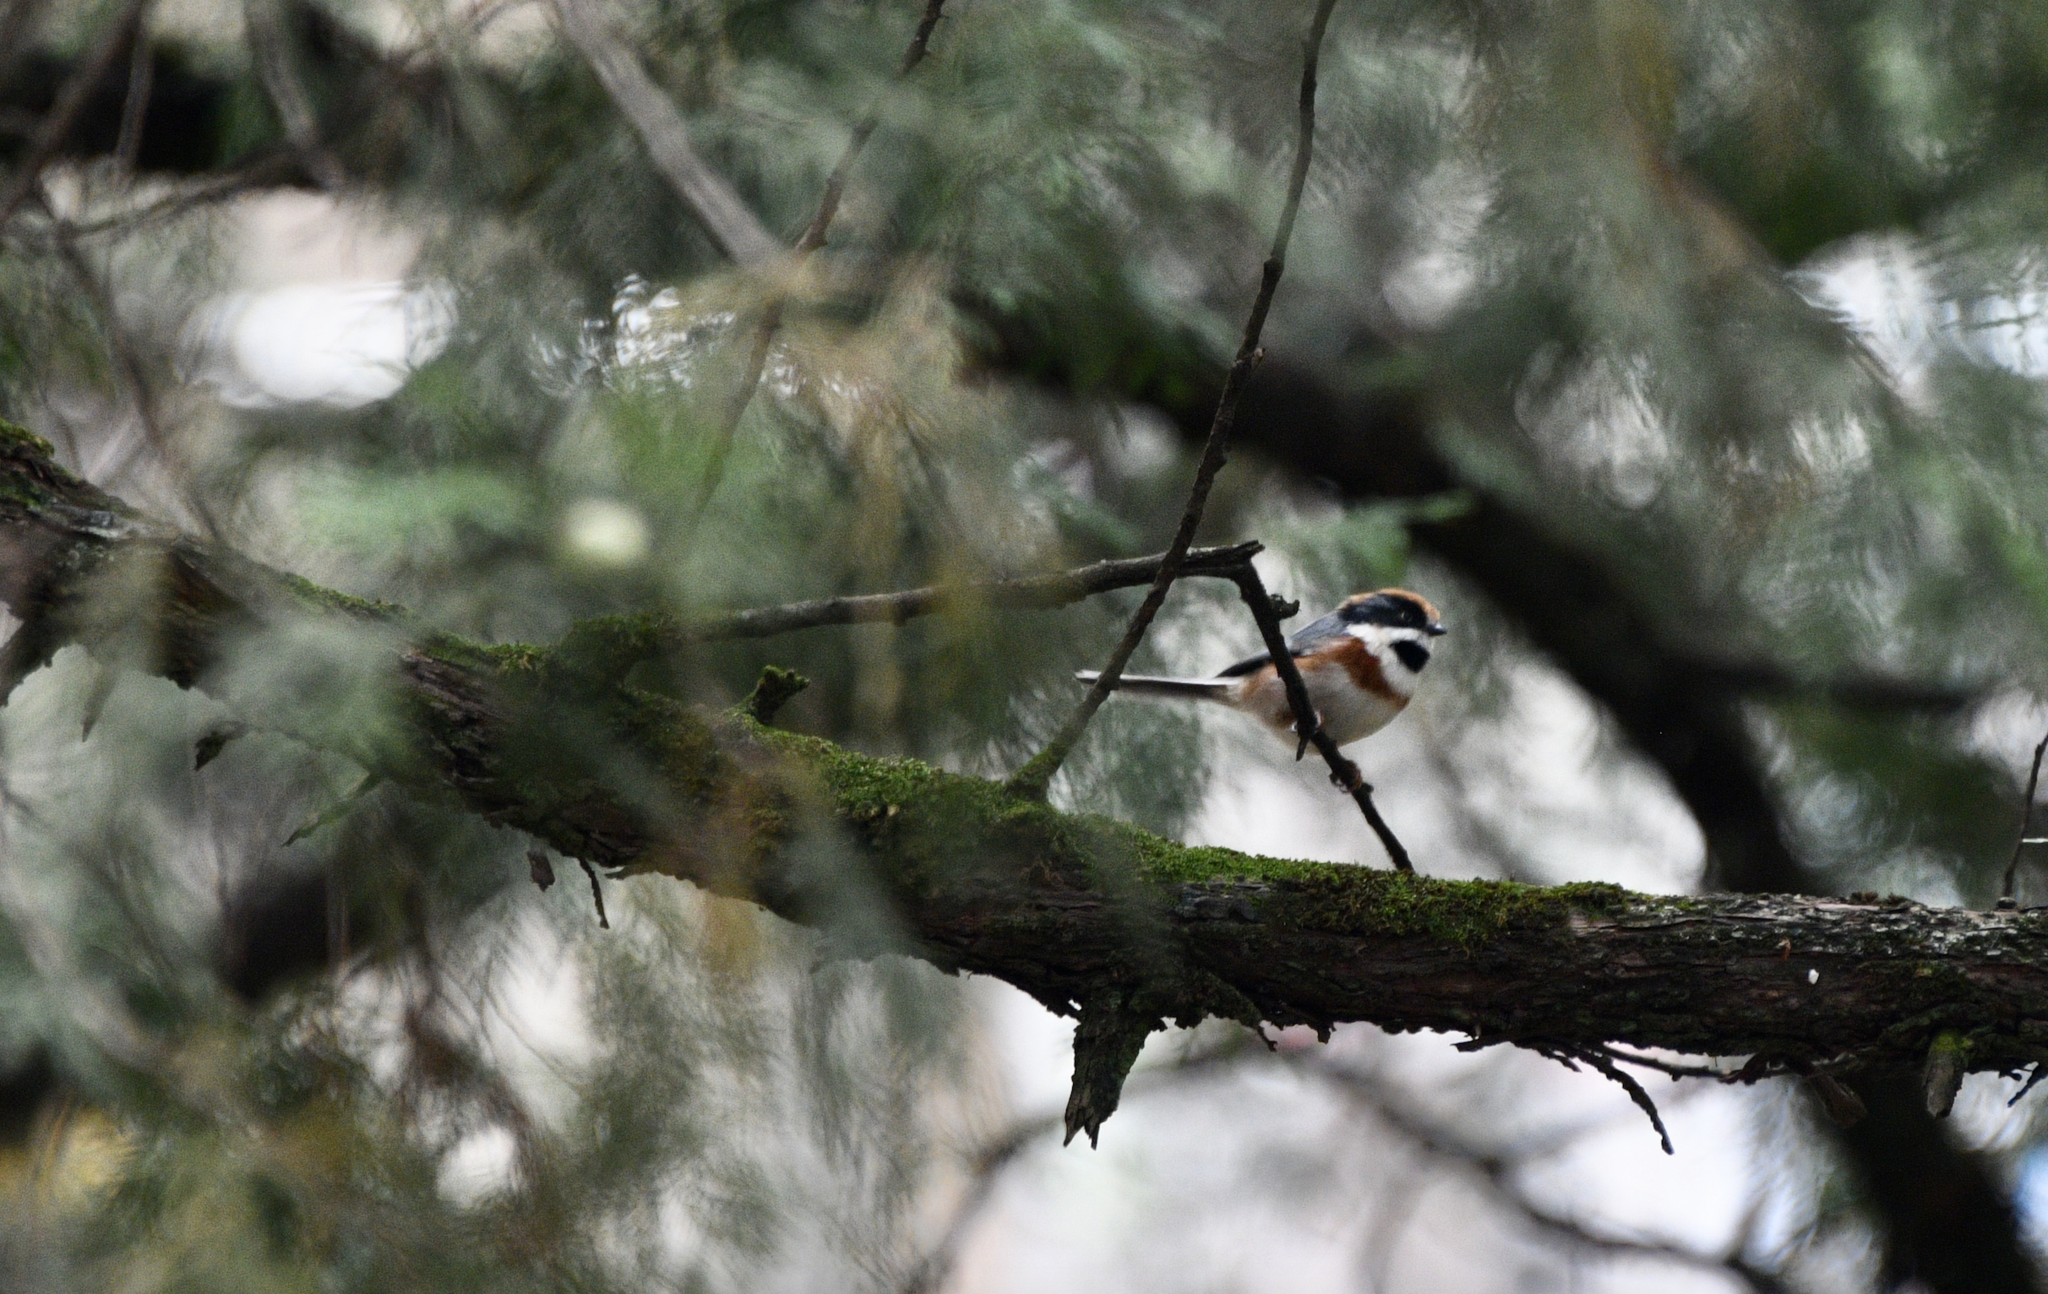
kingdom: Animalia
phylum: Chordata
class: Aves
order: Passeriformes
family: Aegithalidae
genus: Aegithalos
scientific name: Aegithalos concinnus
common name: Black-throated bushtit
